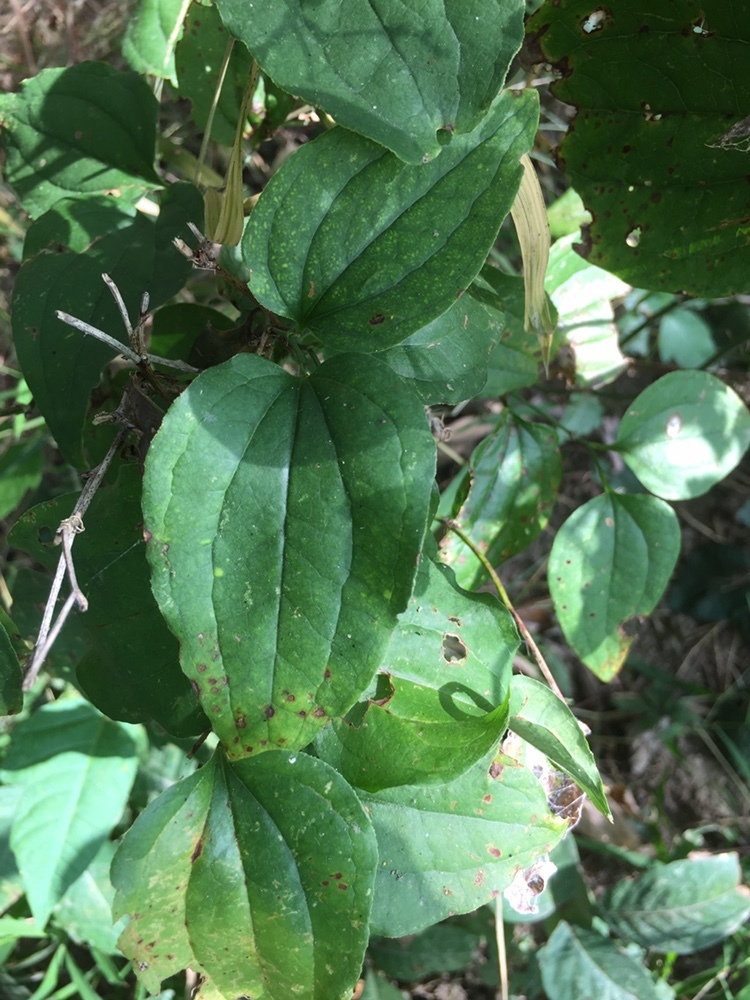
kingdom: Plantae
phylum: Tracheophyta
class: Liliopsida
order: Liliales
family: Smilacaceae
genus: Smilax
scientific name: Smilax tamnoides
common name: Hellfetter
